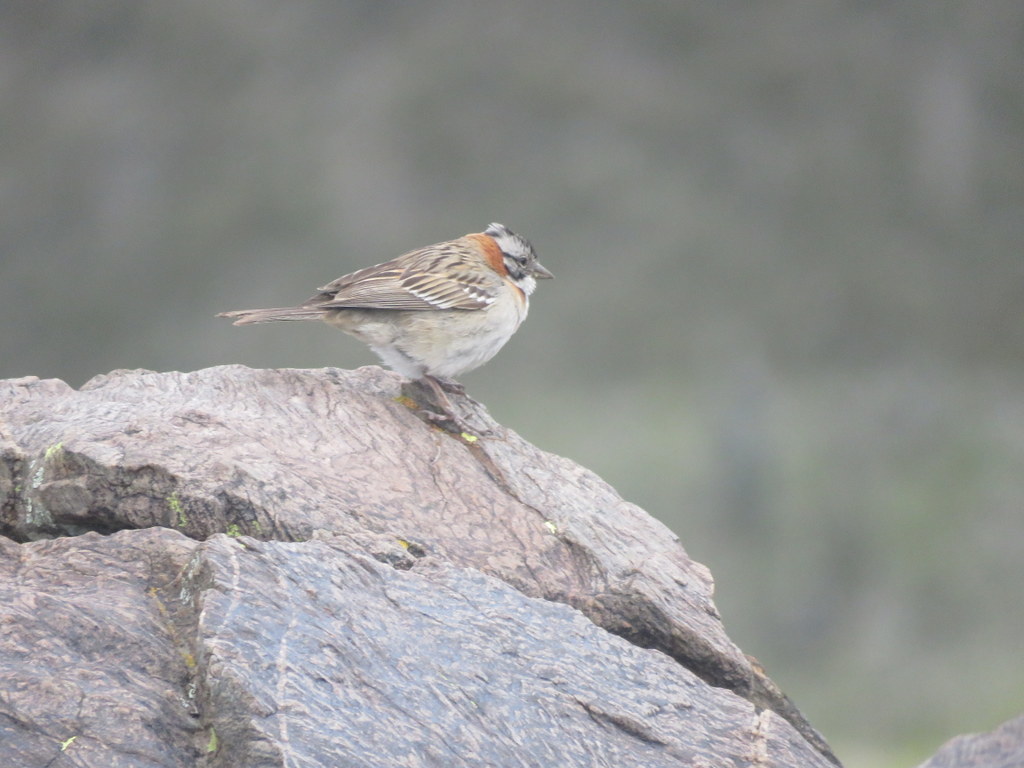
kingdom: Animalia
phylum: Chordata
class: Aves
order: Passeriformes
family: Passerellidae
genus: Zonotrichia
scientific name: Zonotrichia capensis
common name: Rufous-collared sparrow
